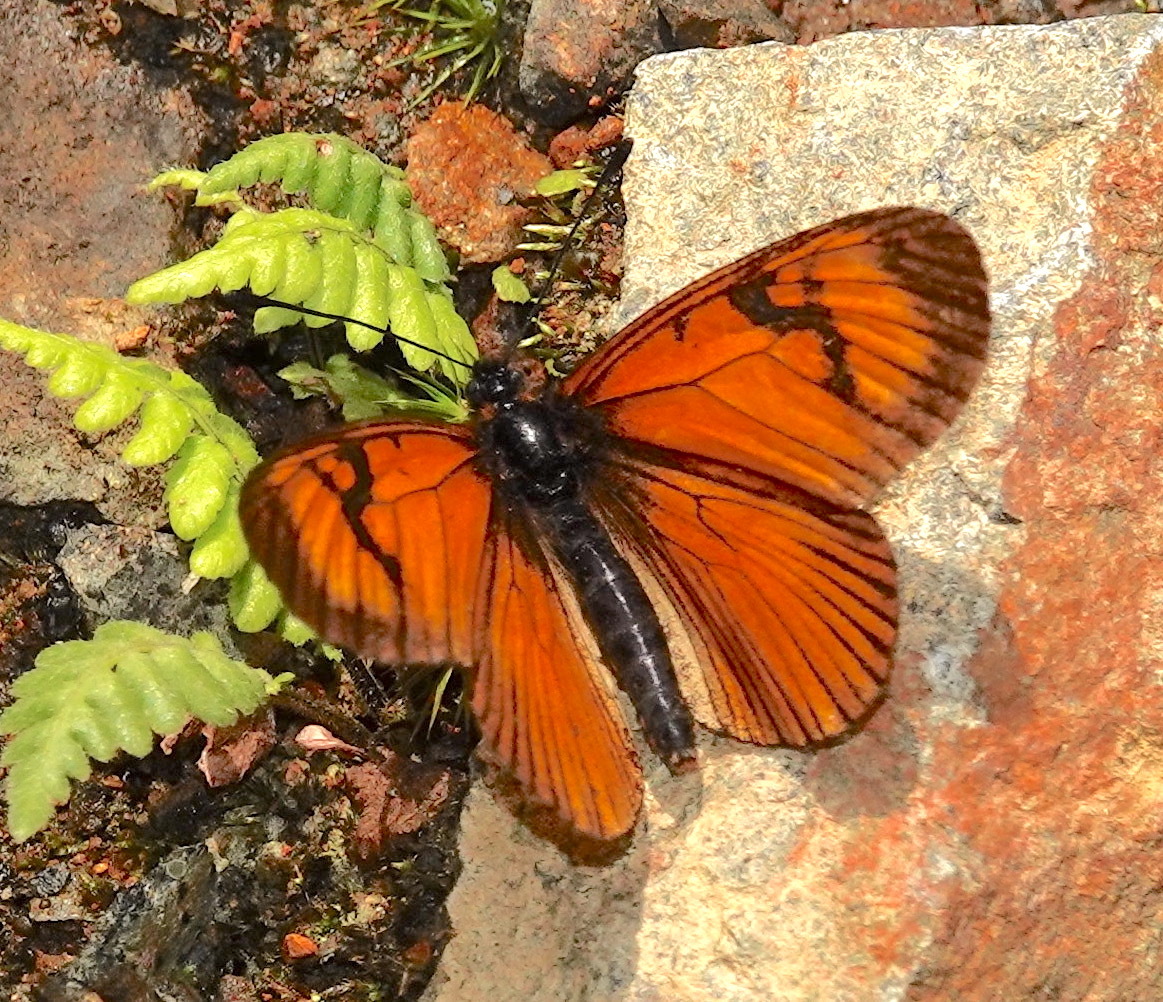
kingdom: Animalia
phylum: Arthropoda
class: Insecta
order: Lepidoptera
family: Nymphalidae
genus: Acraea
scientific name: Acraea Altinote eresia
